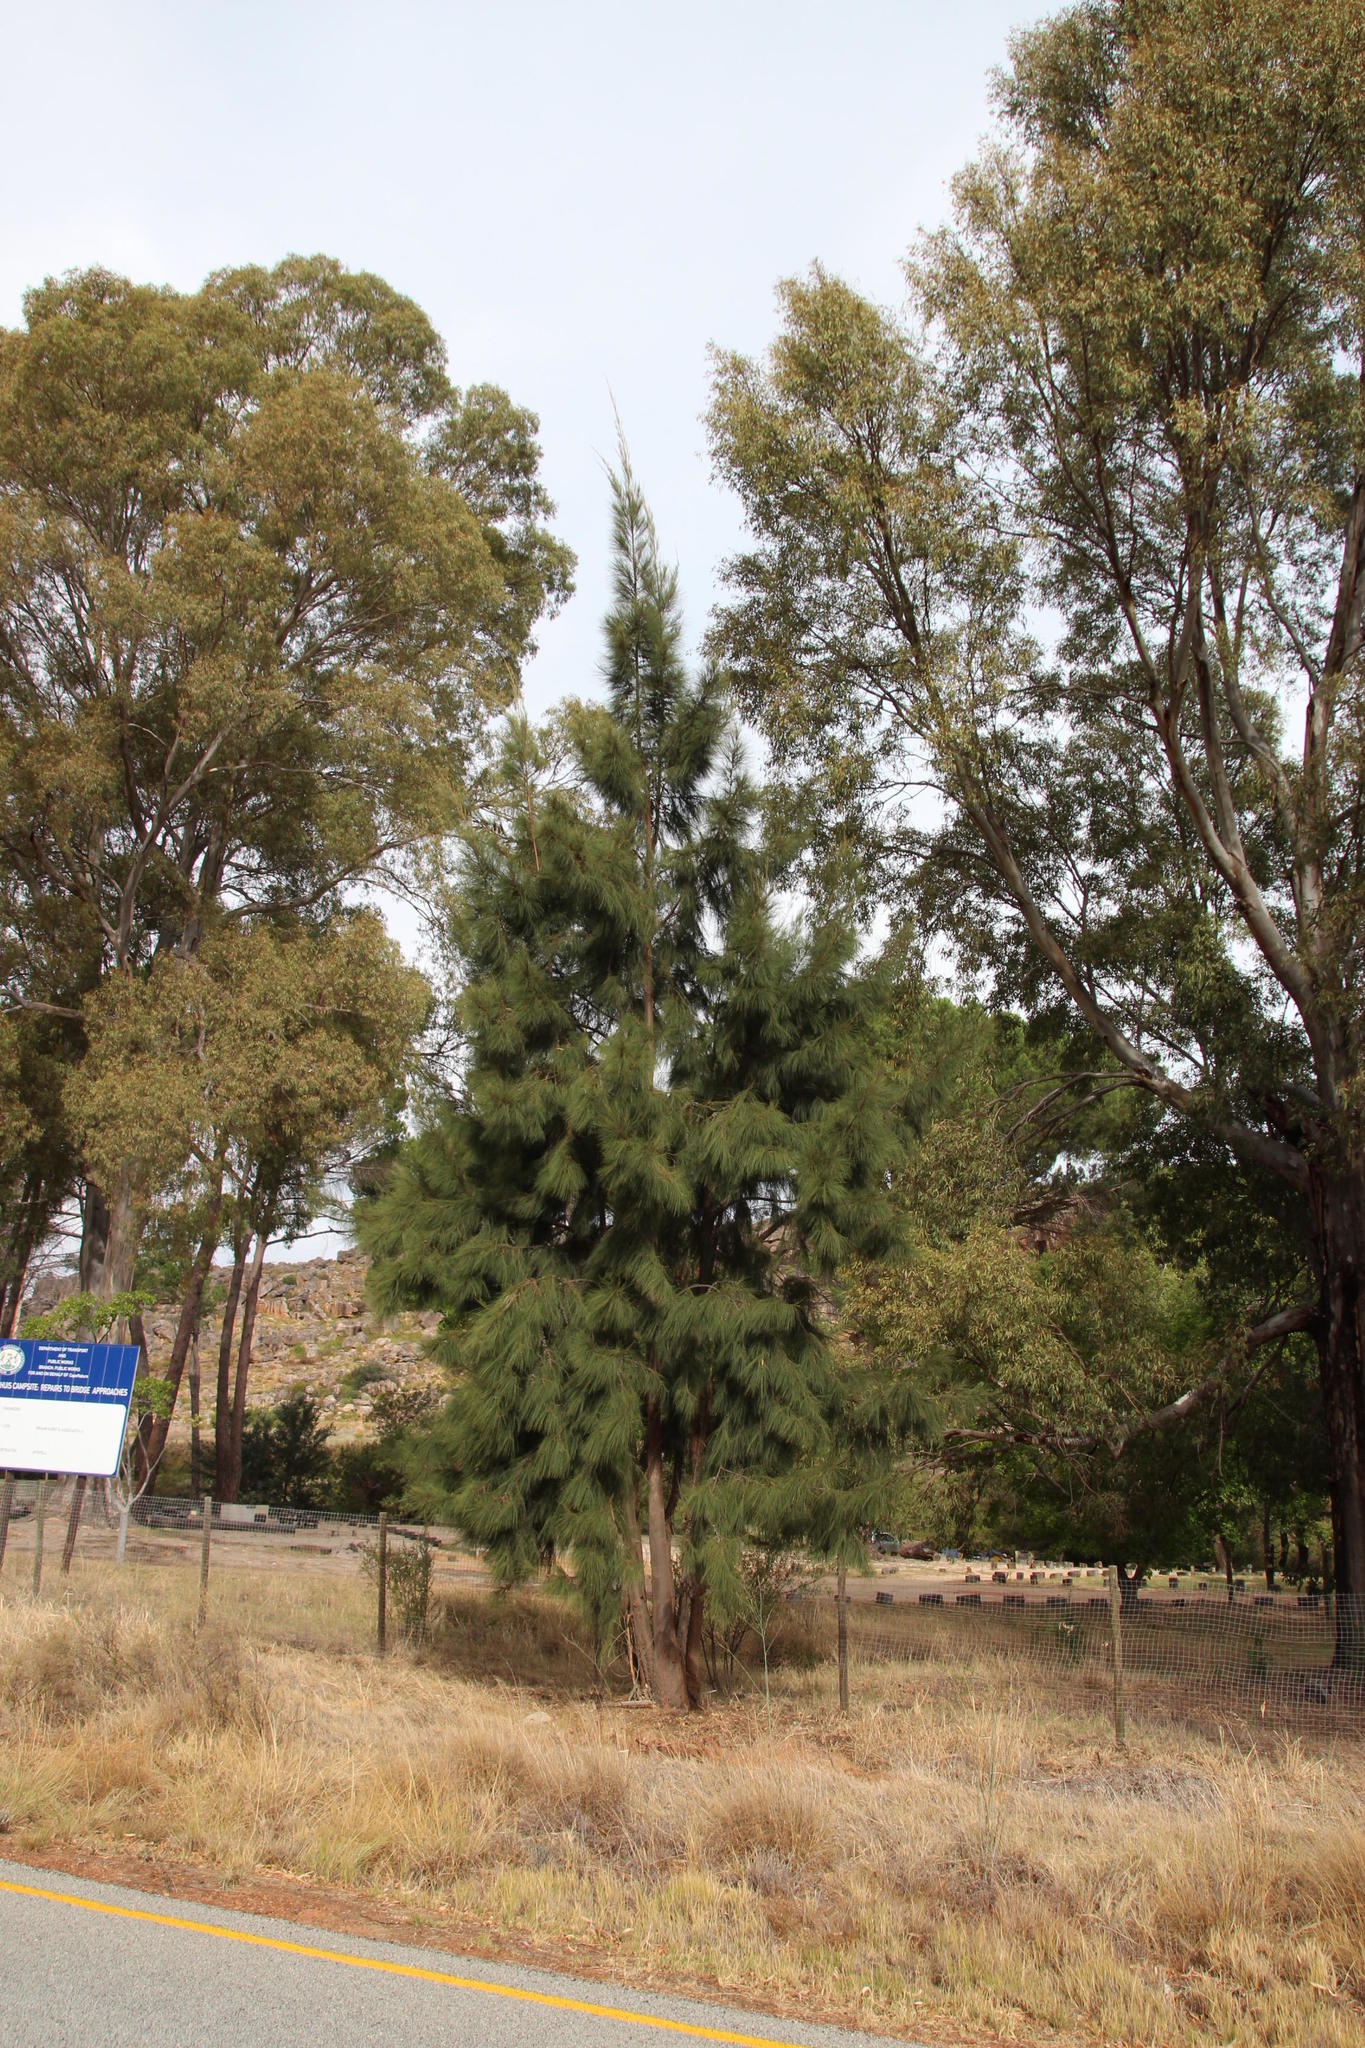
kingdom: Plantae
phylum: Tracheophyta
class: Magnoliopsida
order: Fagales
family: Casuarinaceae
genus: Casuarina
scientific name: Casuarina cunninghamiana
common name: River sheoak
